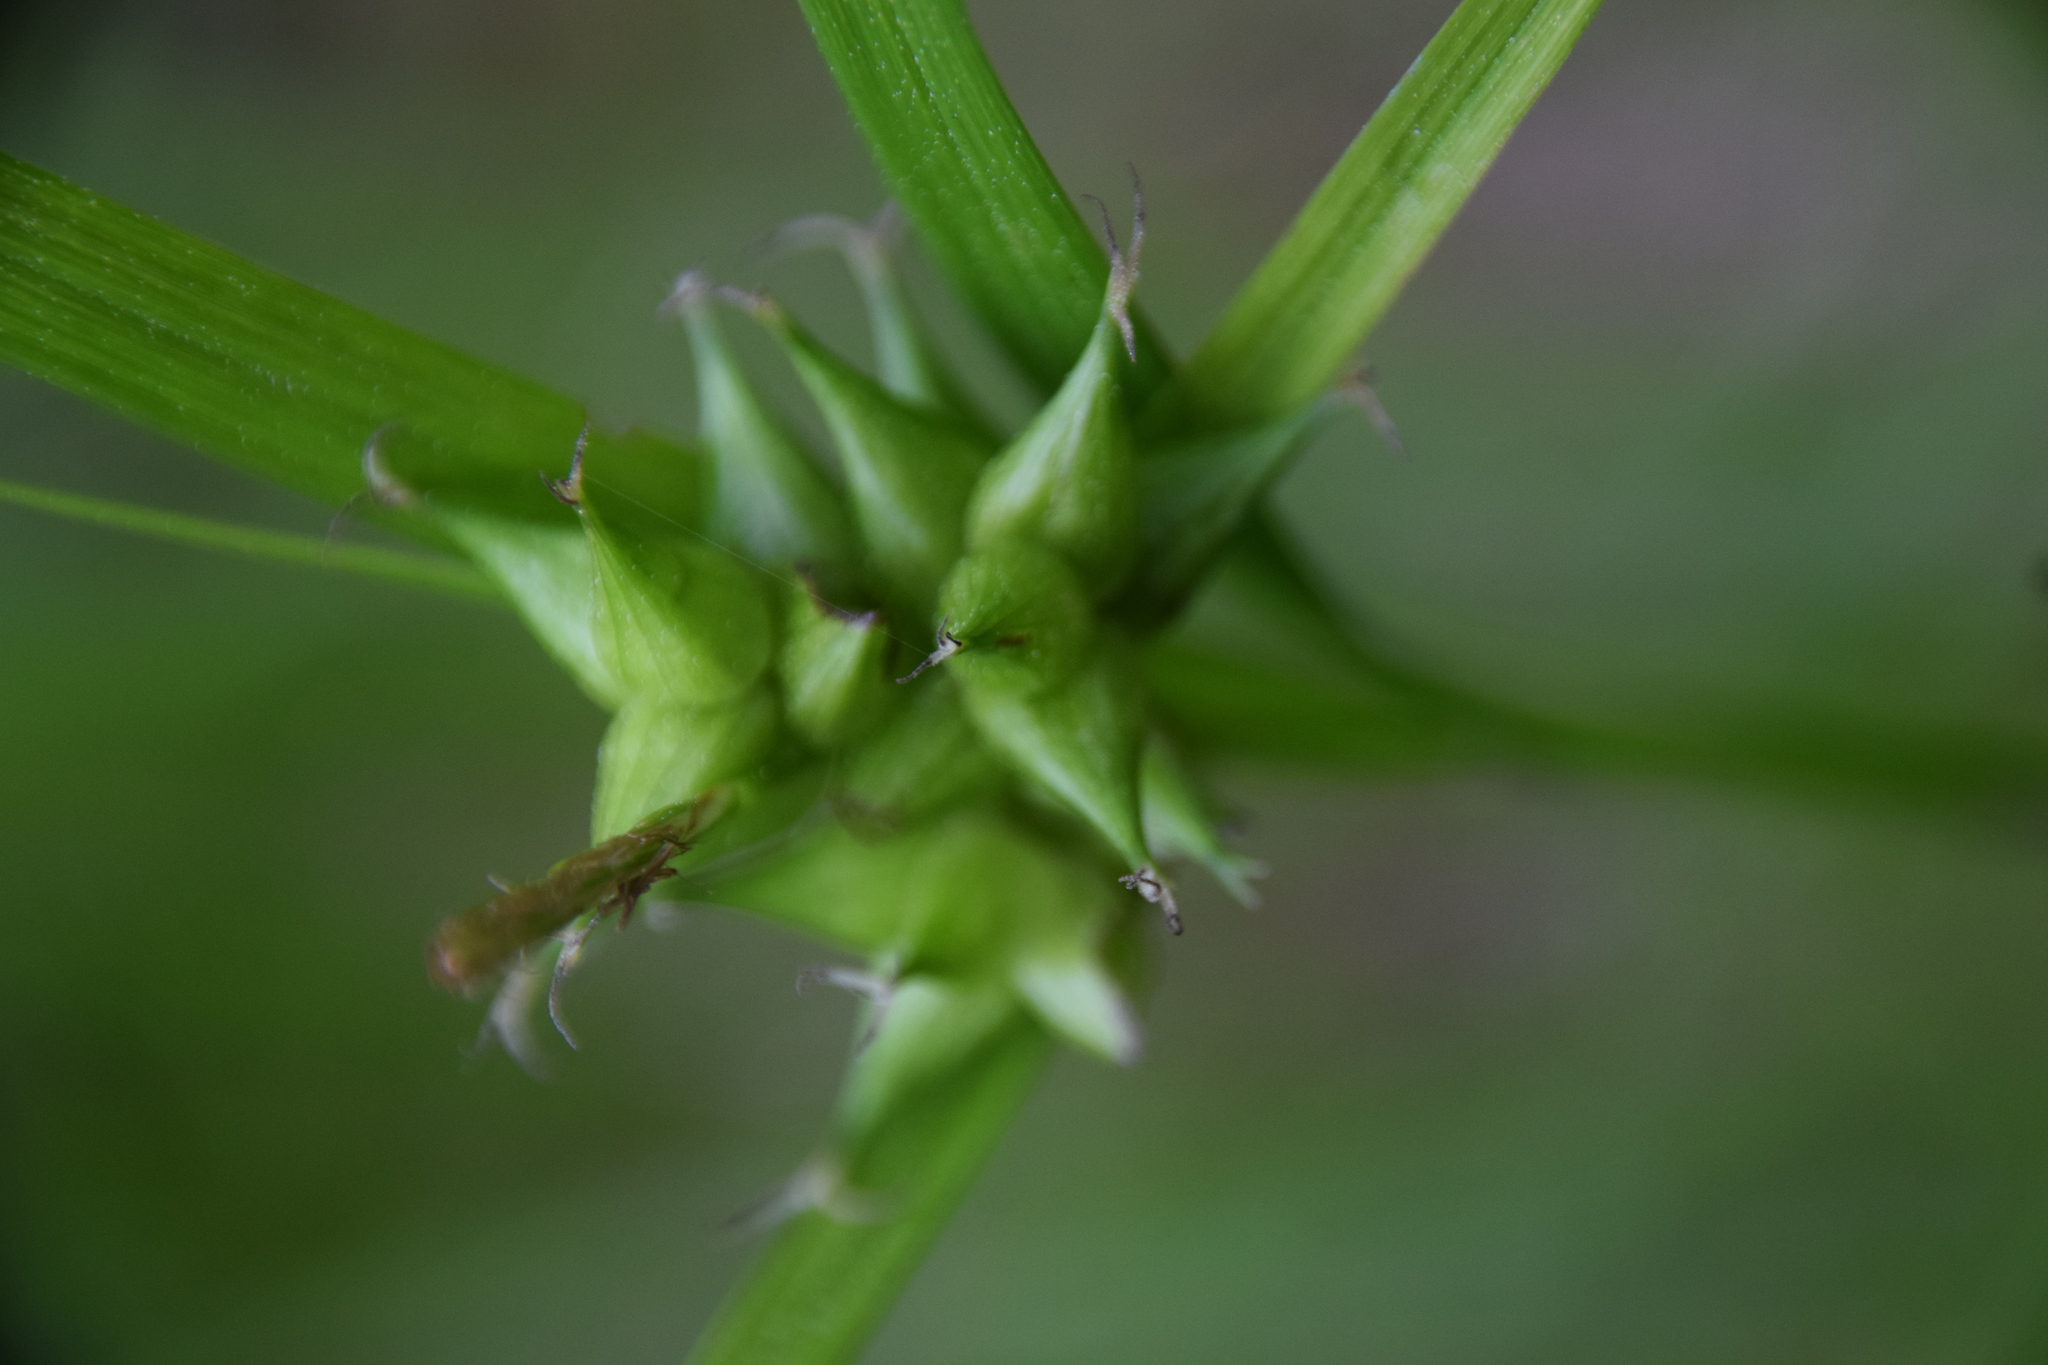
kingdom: Plantae
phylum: Tracheophyta
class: Liliopsida
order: Poales
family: Cyperaceae
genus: Carex
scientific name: Carex intumescens
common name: Greater bladder sedge
